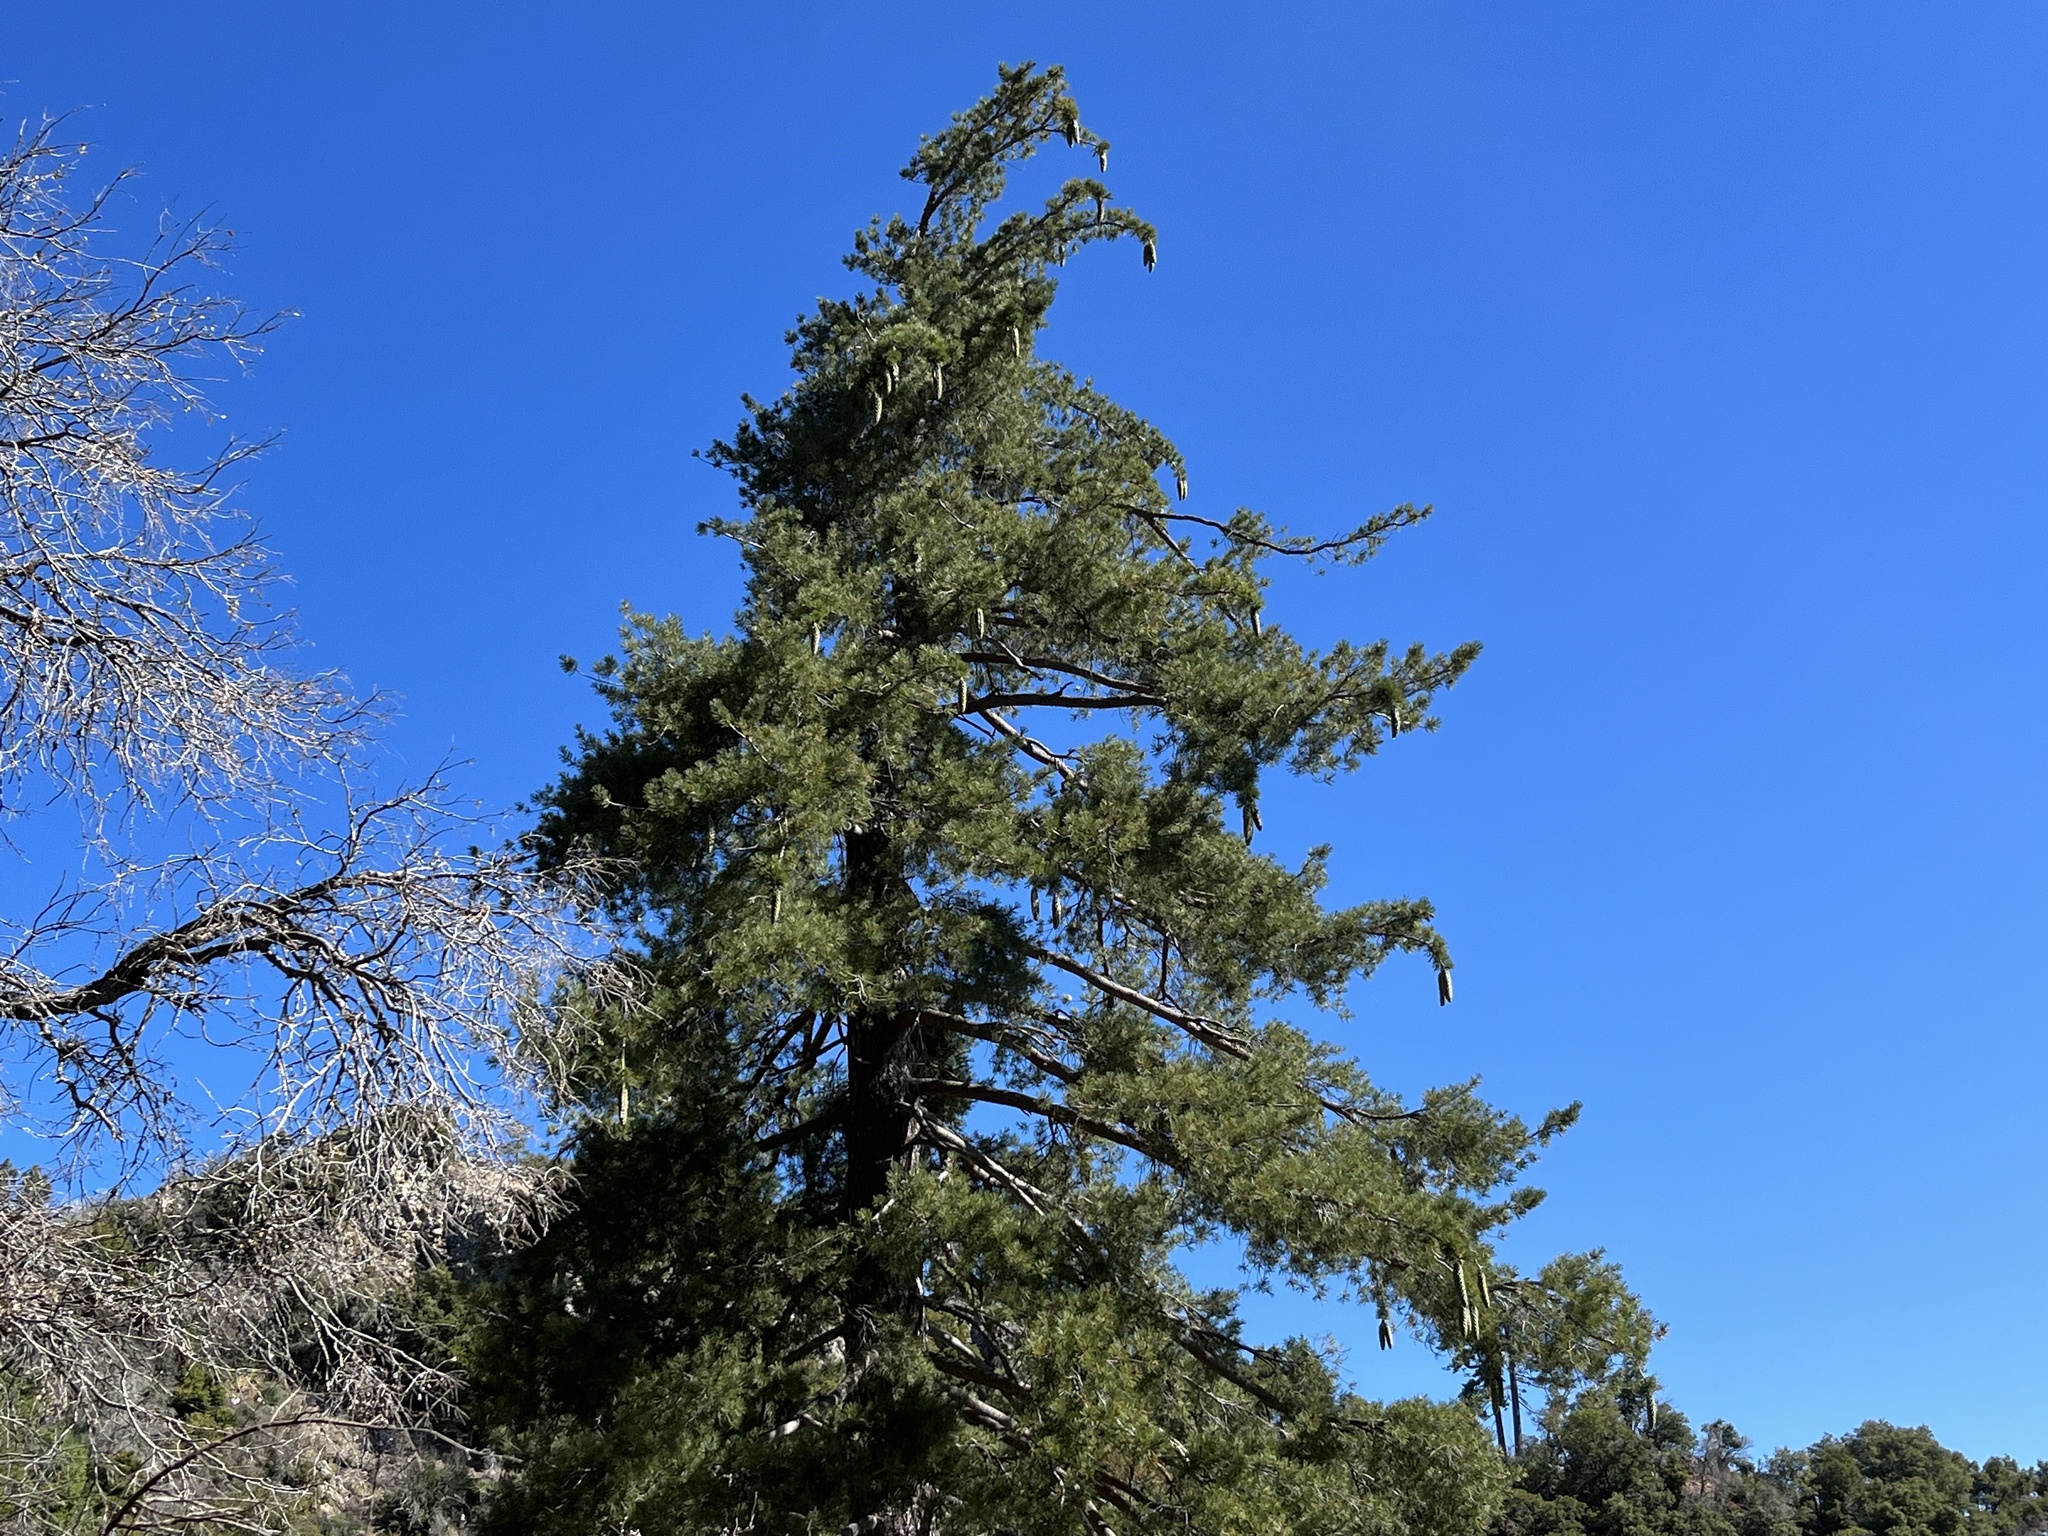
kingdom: Plantae
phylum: Tracheophyta
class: Pinopsida
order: Pinales
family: Pinaceae
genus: Pinus
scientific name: Pinus lambertiana
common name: Sugar pine
